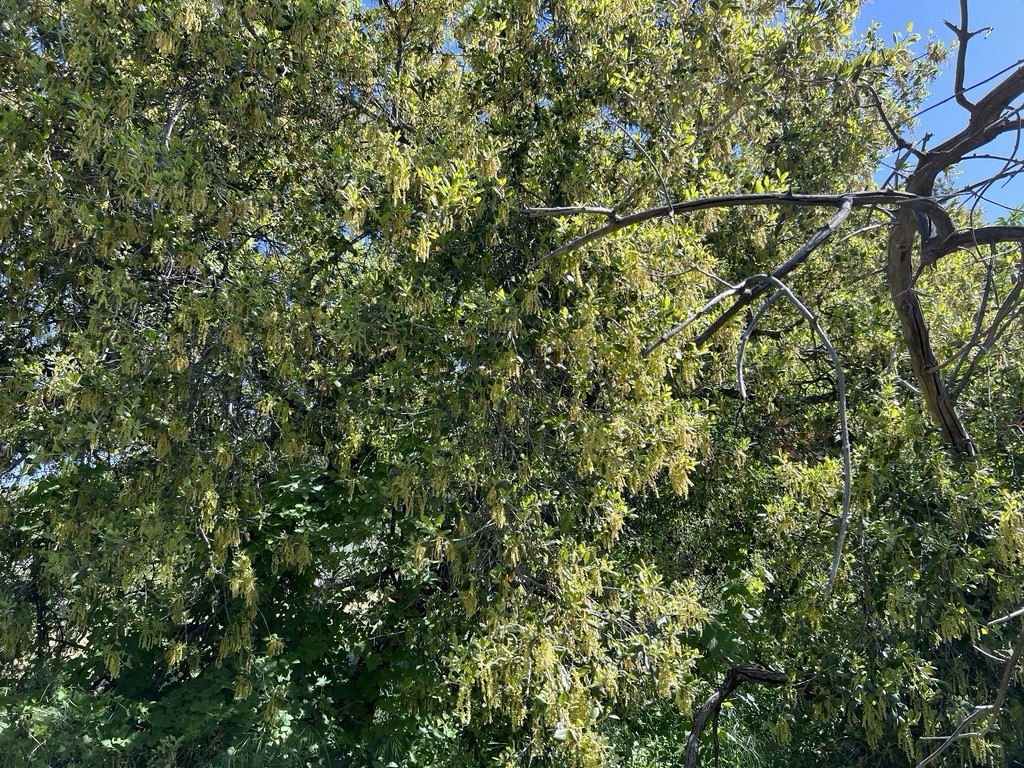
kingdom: Plantae
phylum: Tracheophyta
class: Magnoliopsida
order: Fagales
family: Fagaceae
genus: Quercus
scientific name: Quercus agrifolia
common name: California live oak
